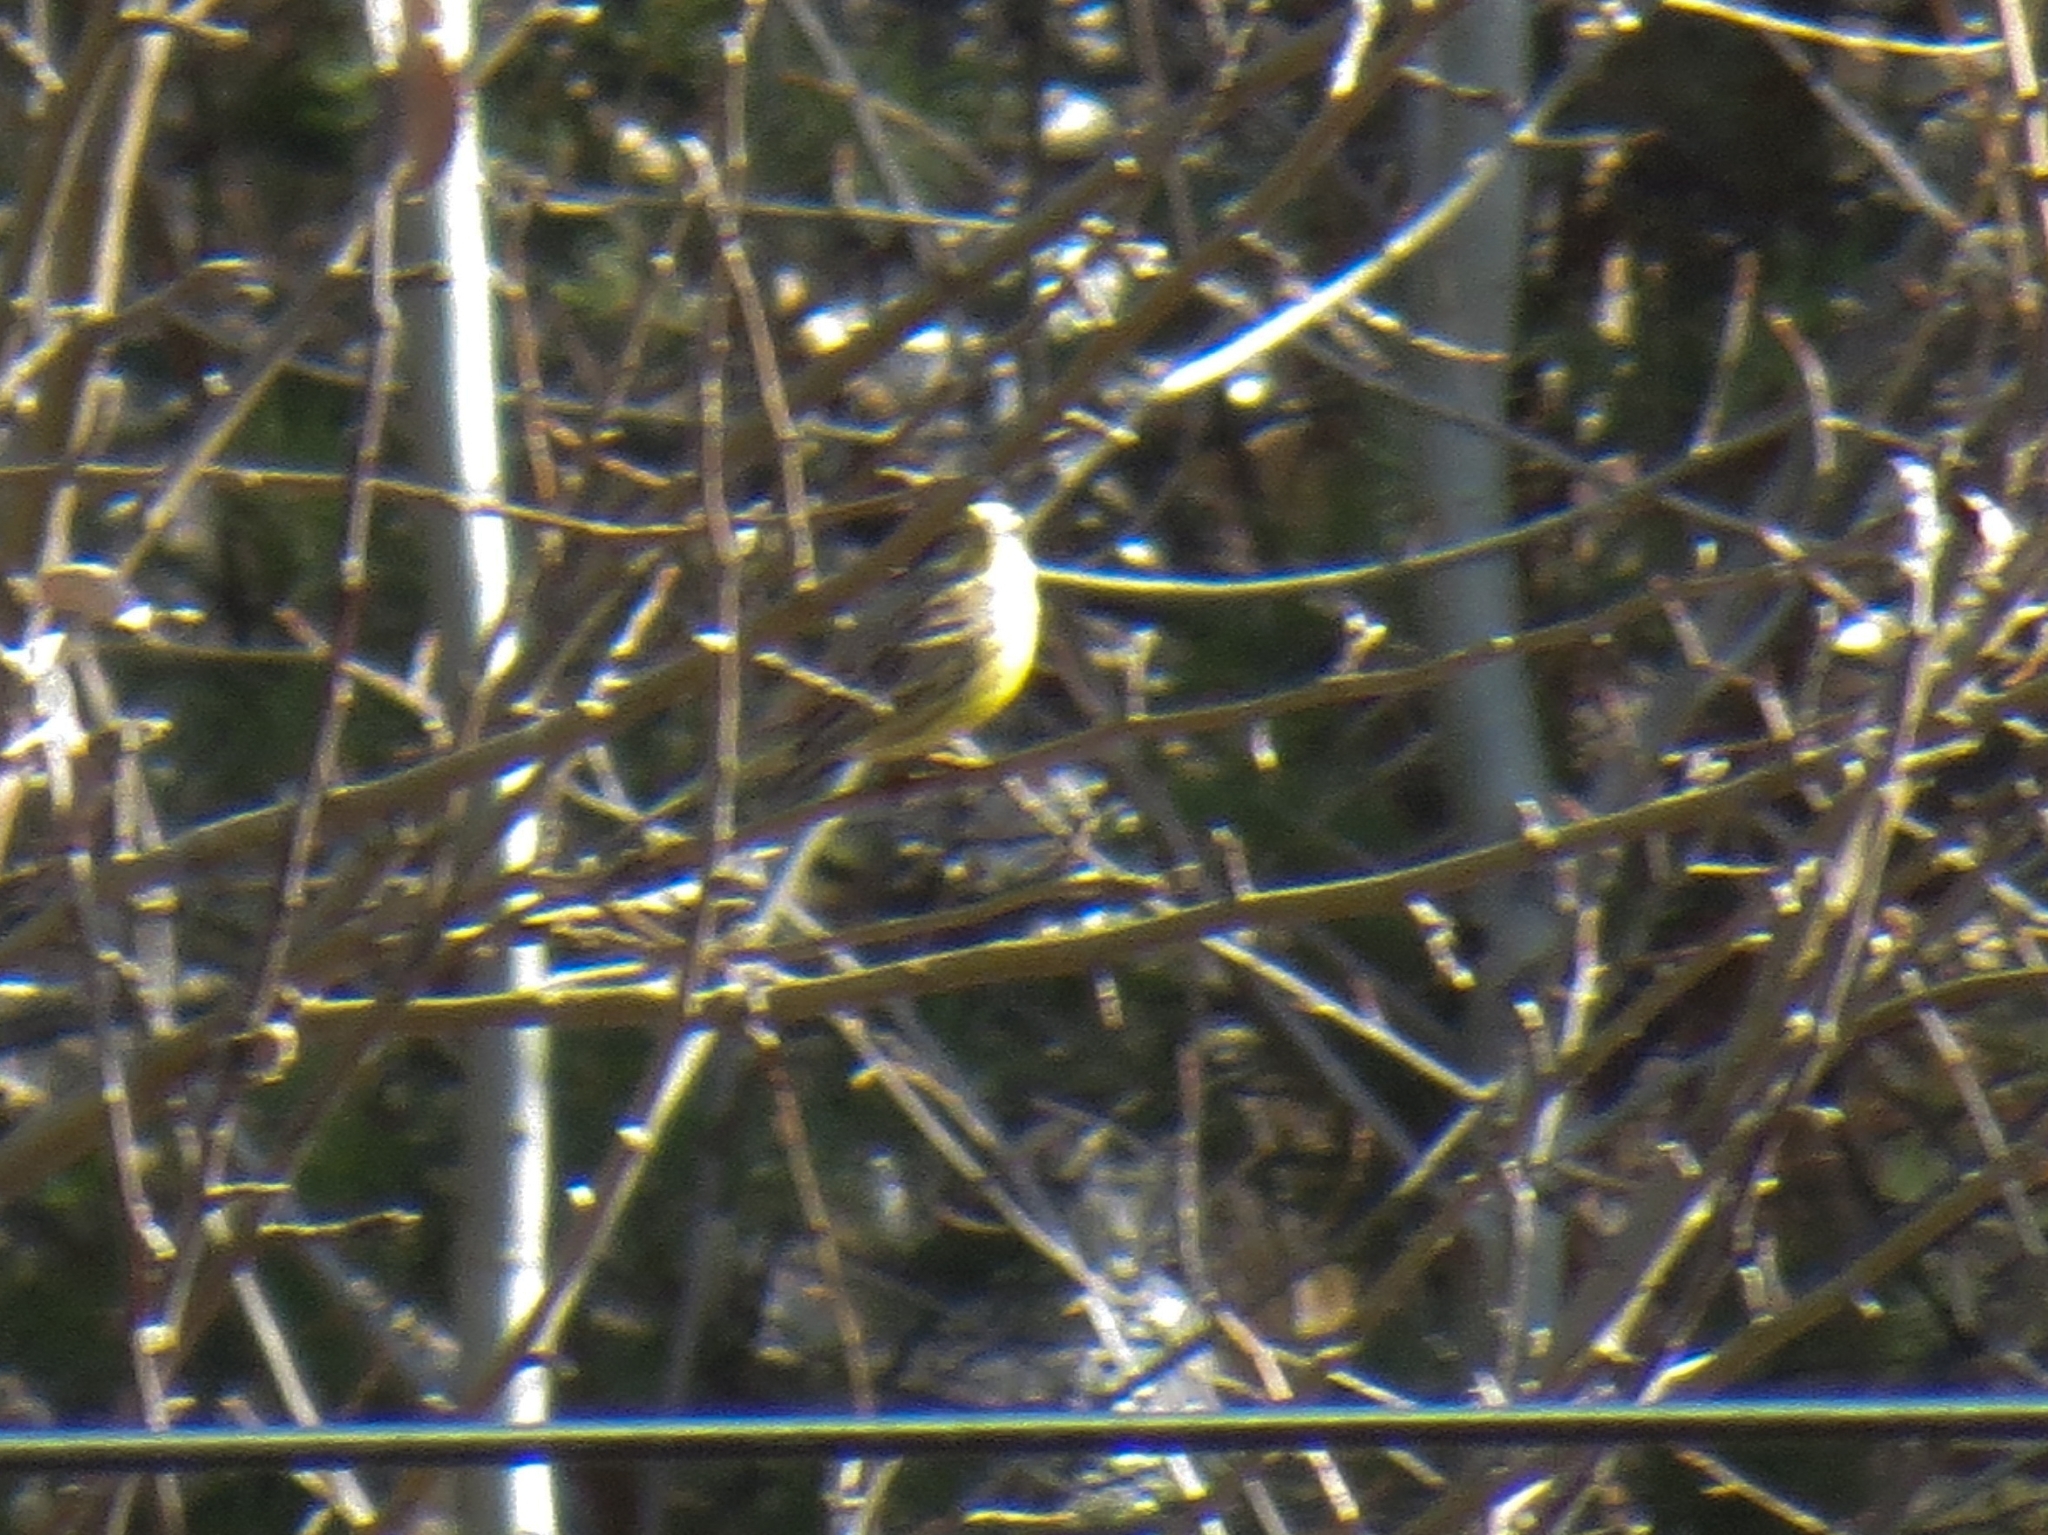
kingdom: Animalia
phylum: Chordata
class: Aves
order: Passeriformes
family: Emberizidae
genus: Emberiza
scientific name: Emberiza citrinella
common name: Yellowhammer
